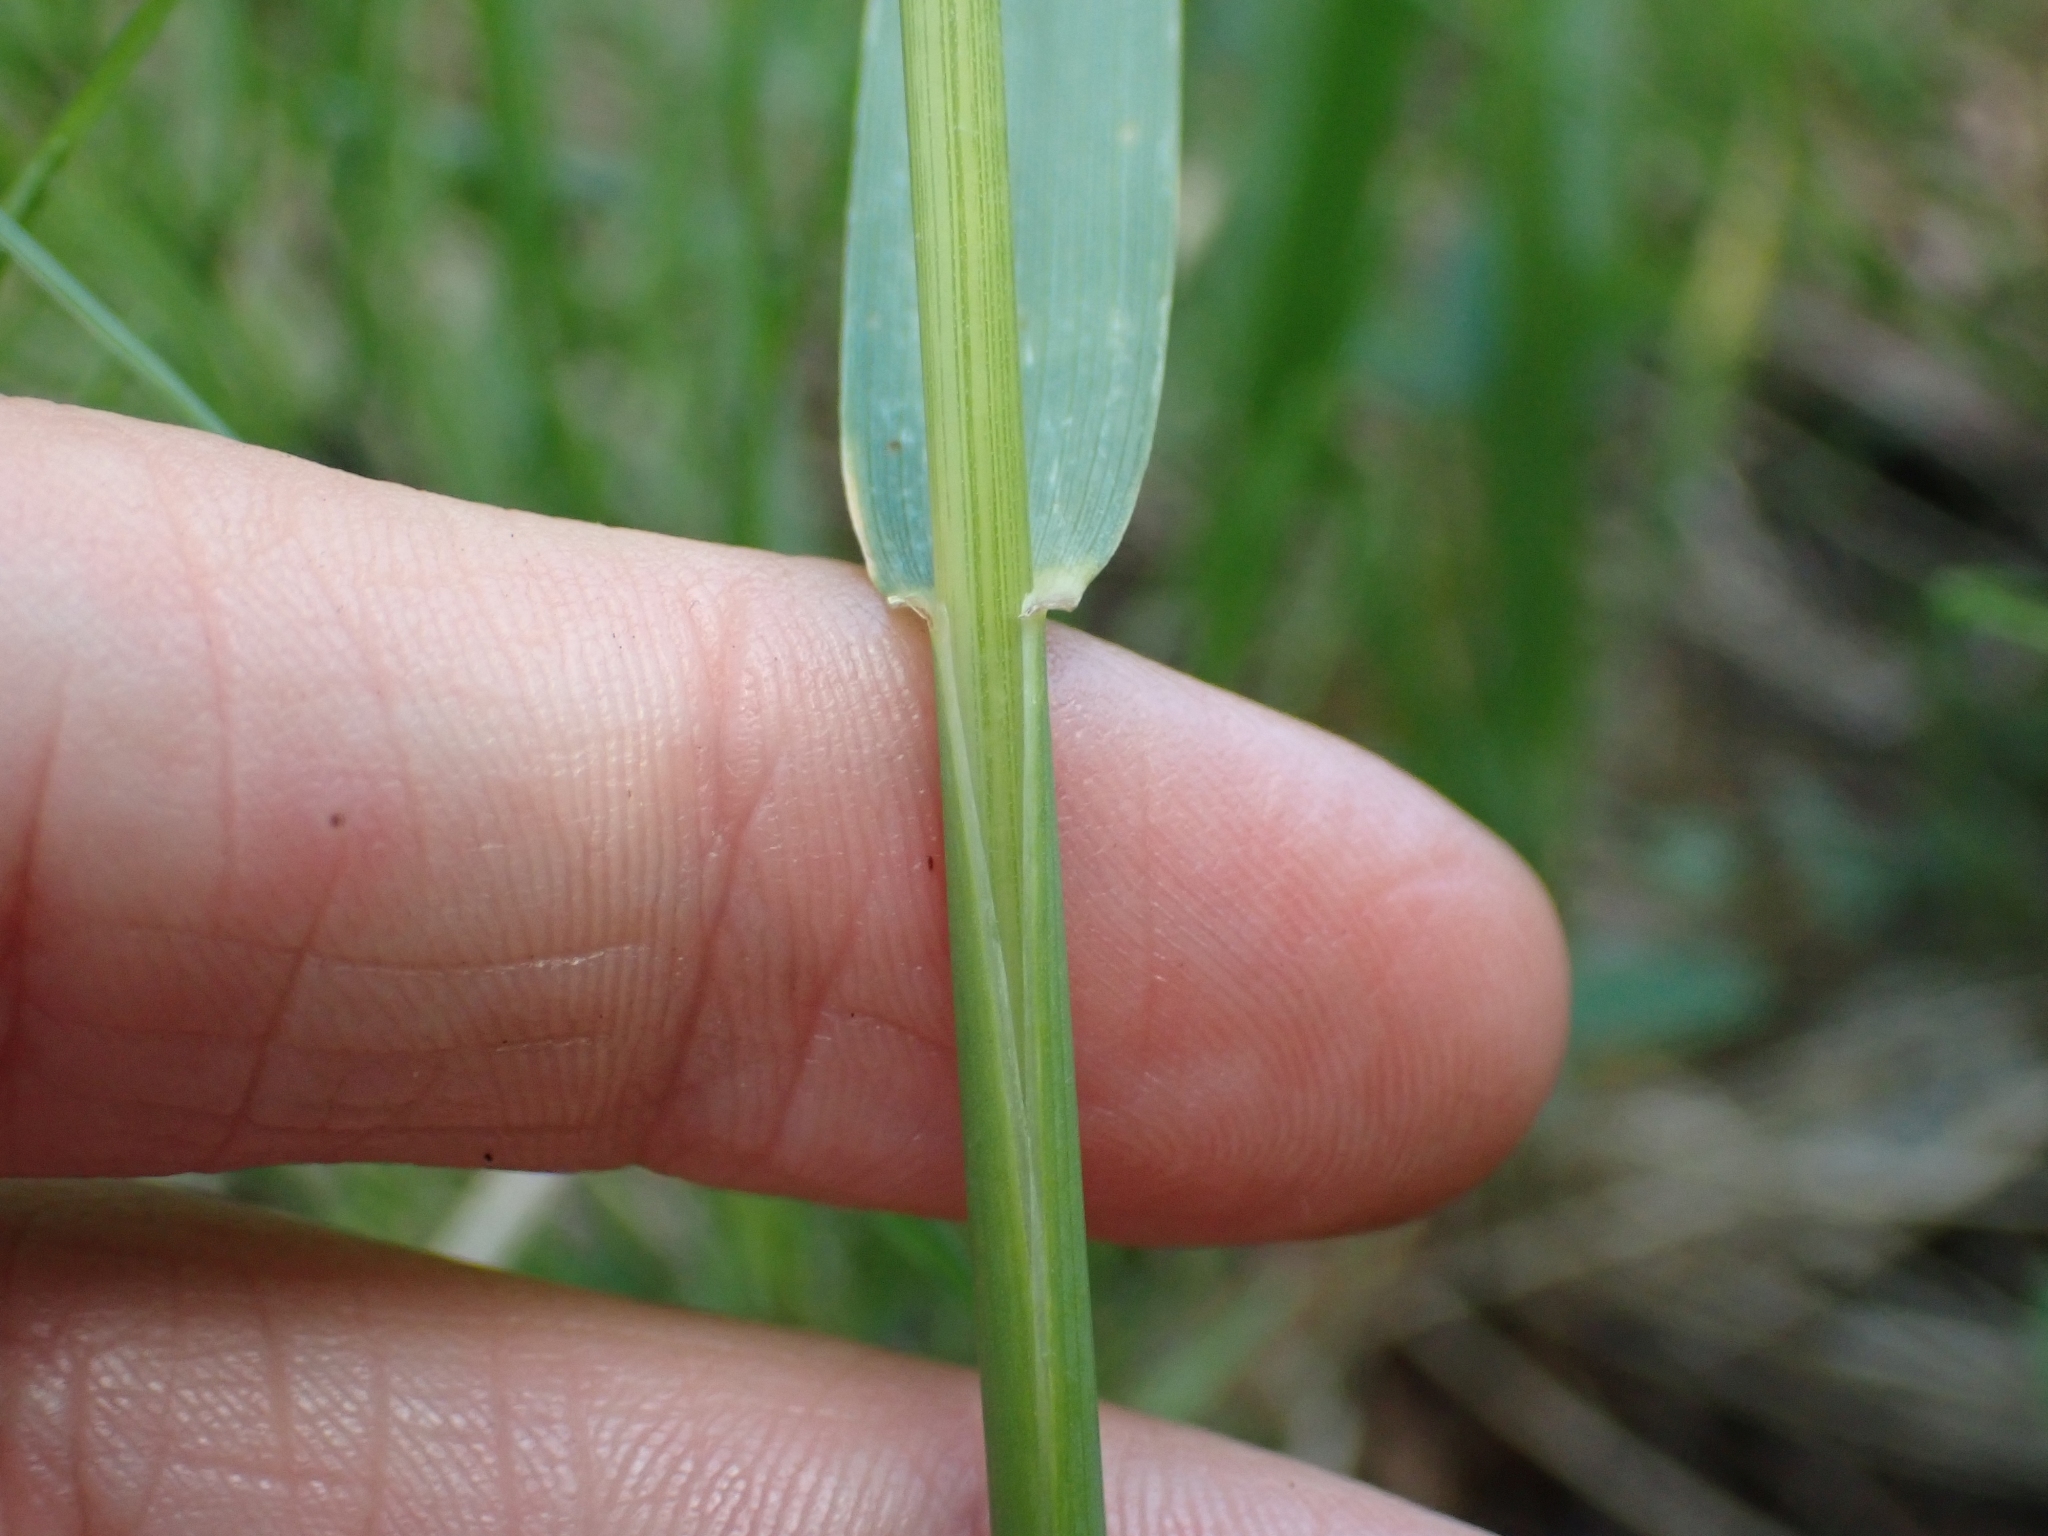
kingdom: Plantae
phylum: Tracheophyta
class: Liliopsida
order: Poales
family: Poaceae
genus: Leymus
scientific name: Leymus innovatus
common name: Boreal wild rye
